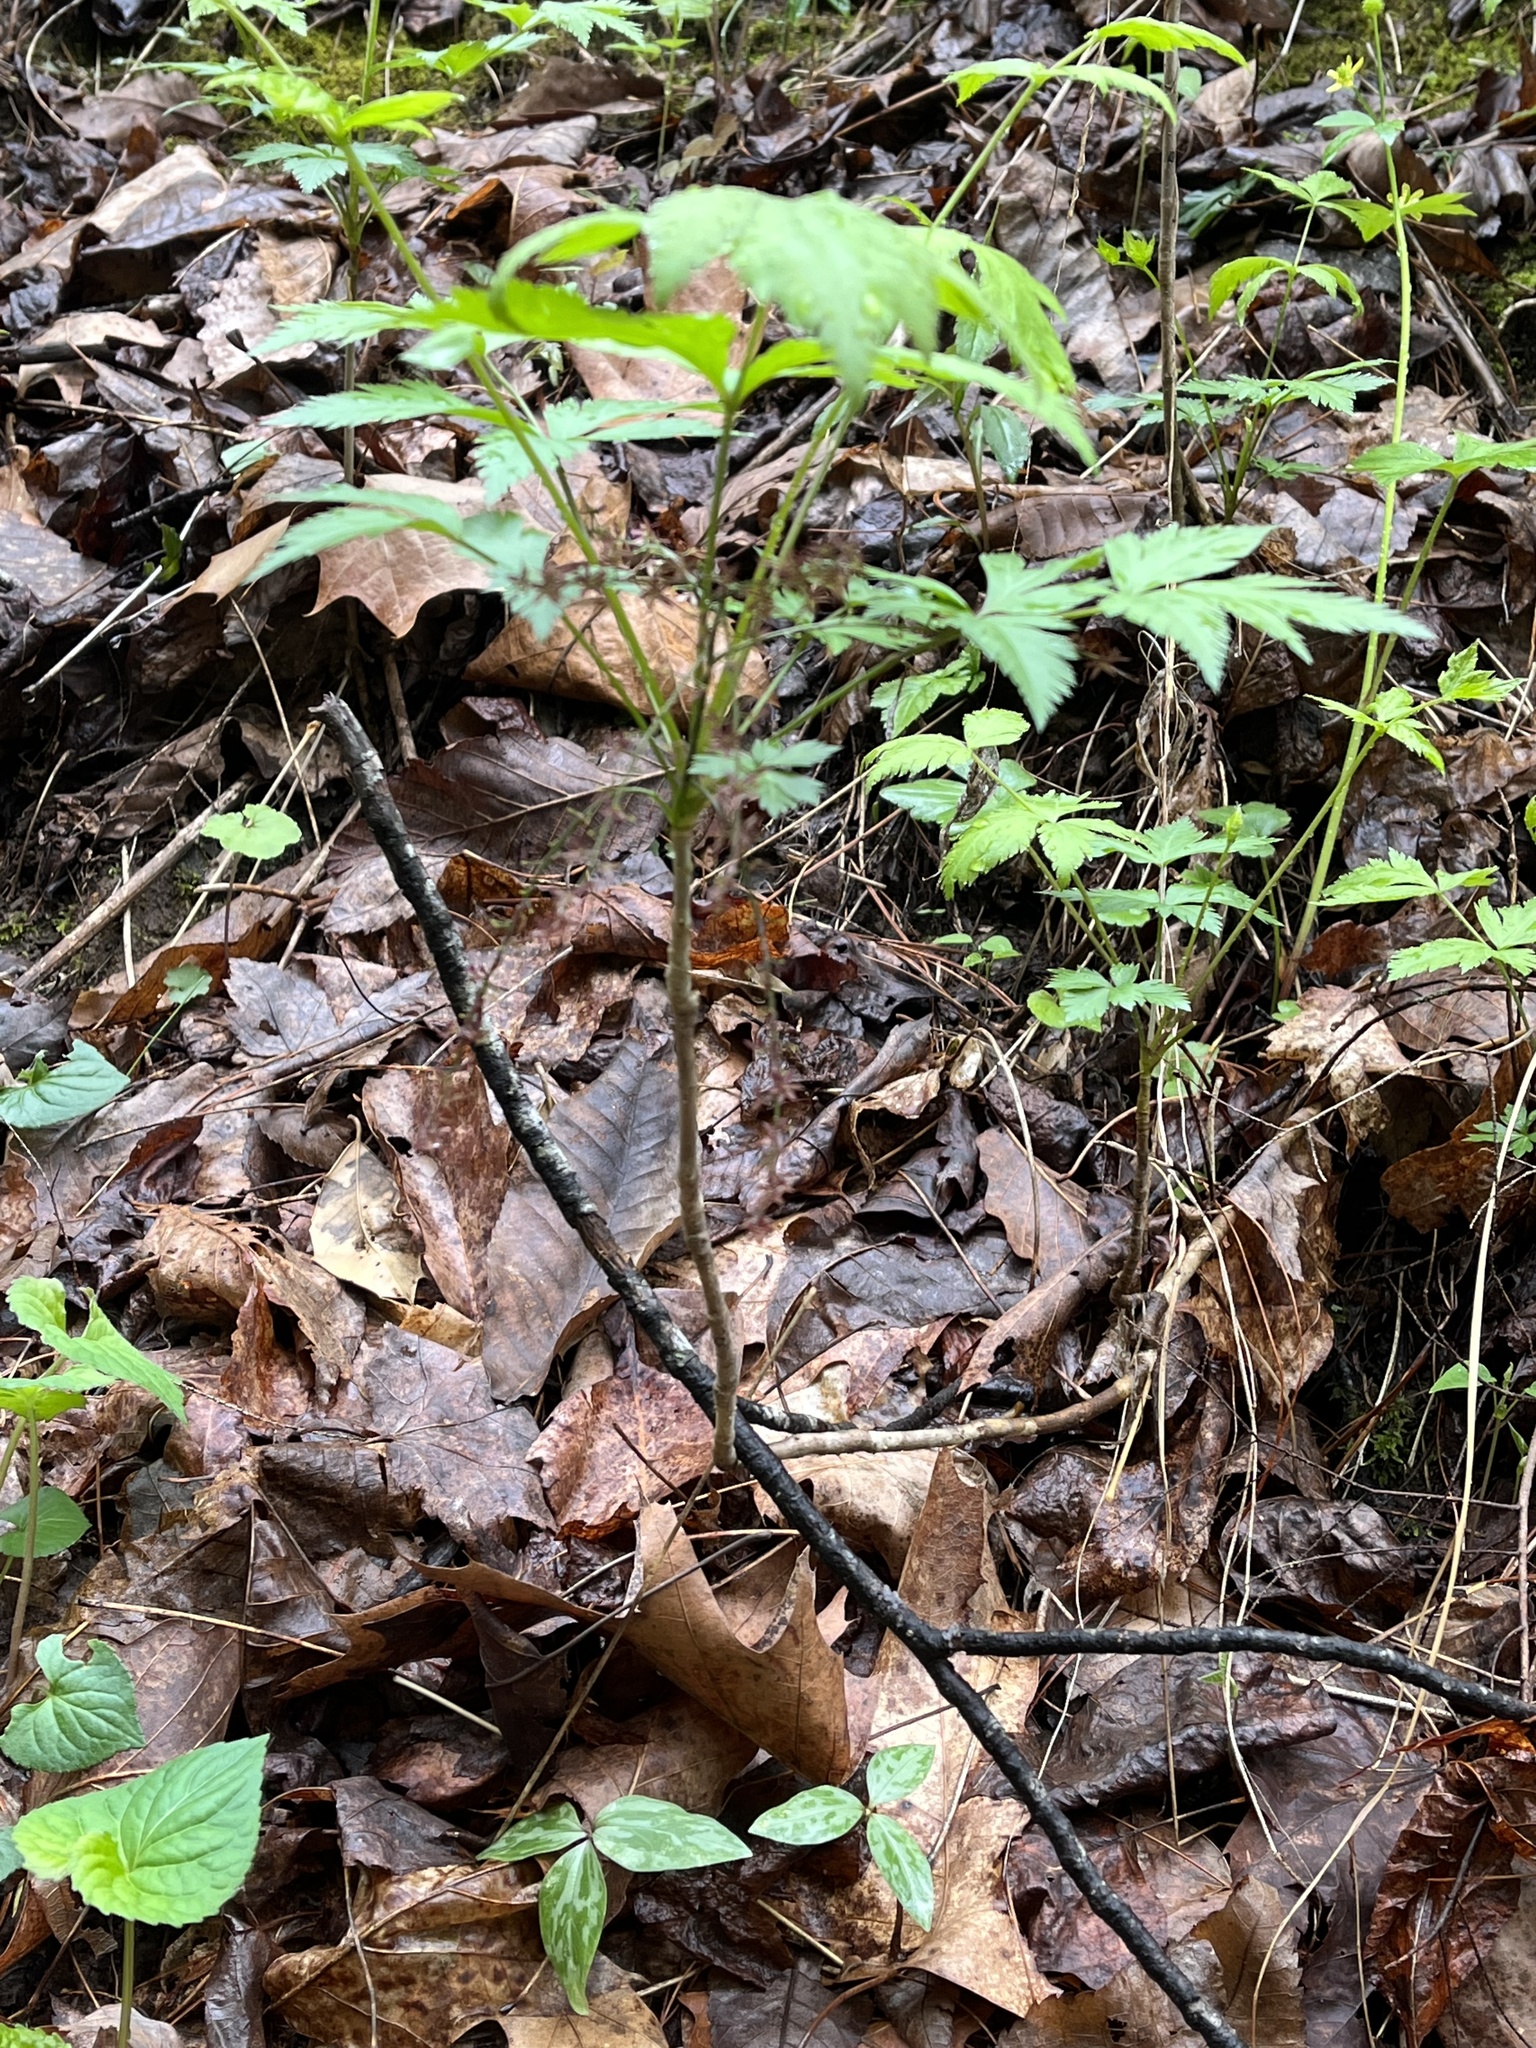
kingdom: Plantae
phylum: Tracheophyta
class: Magnoliopsida
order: Ranunculales
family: Ranunculaceae
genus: Xanthorhiza
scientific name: Xanthorhiza simplicissima
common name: Yellowroot
